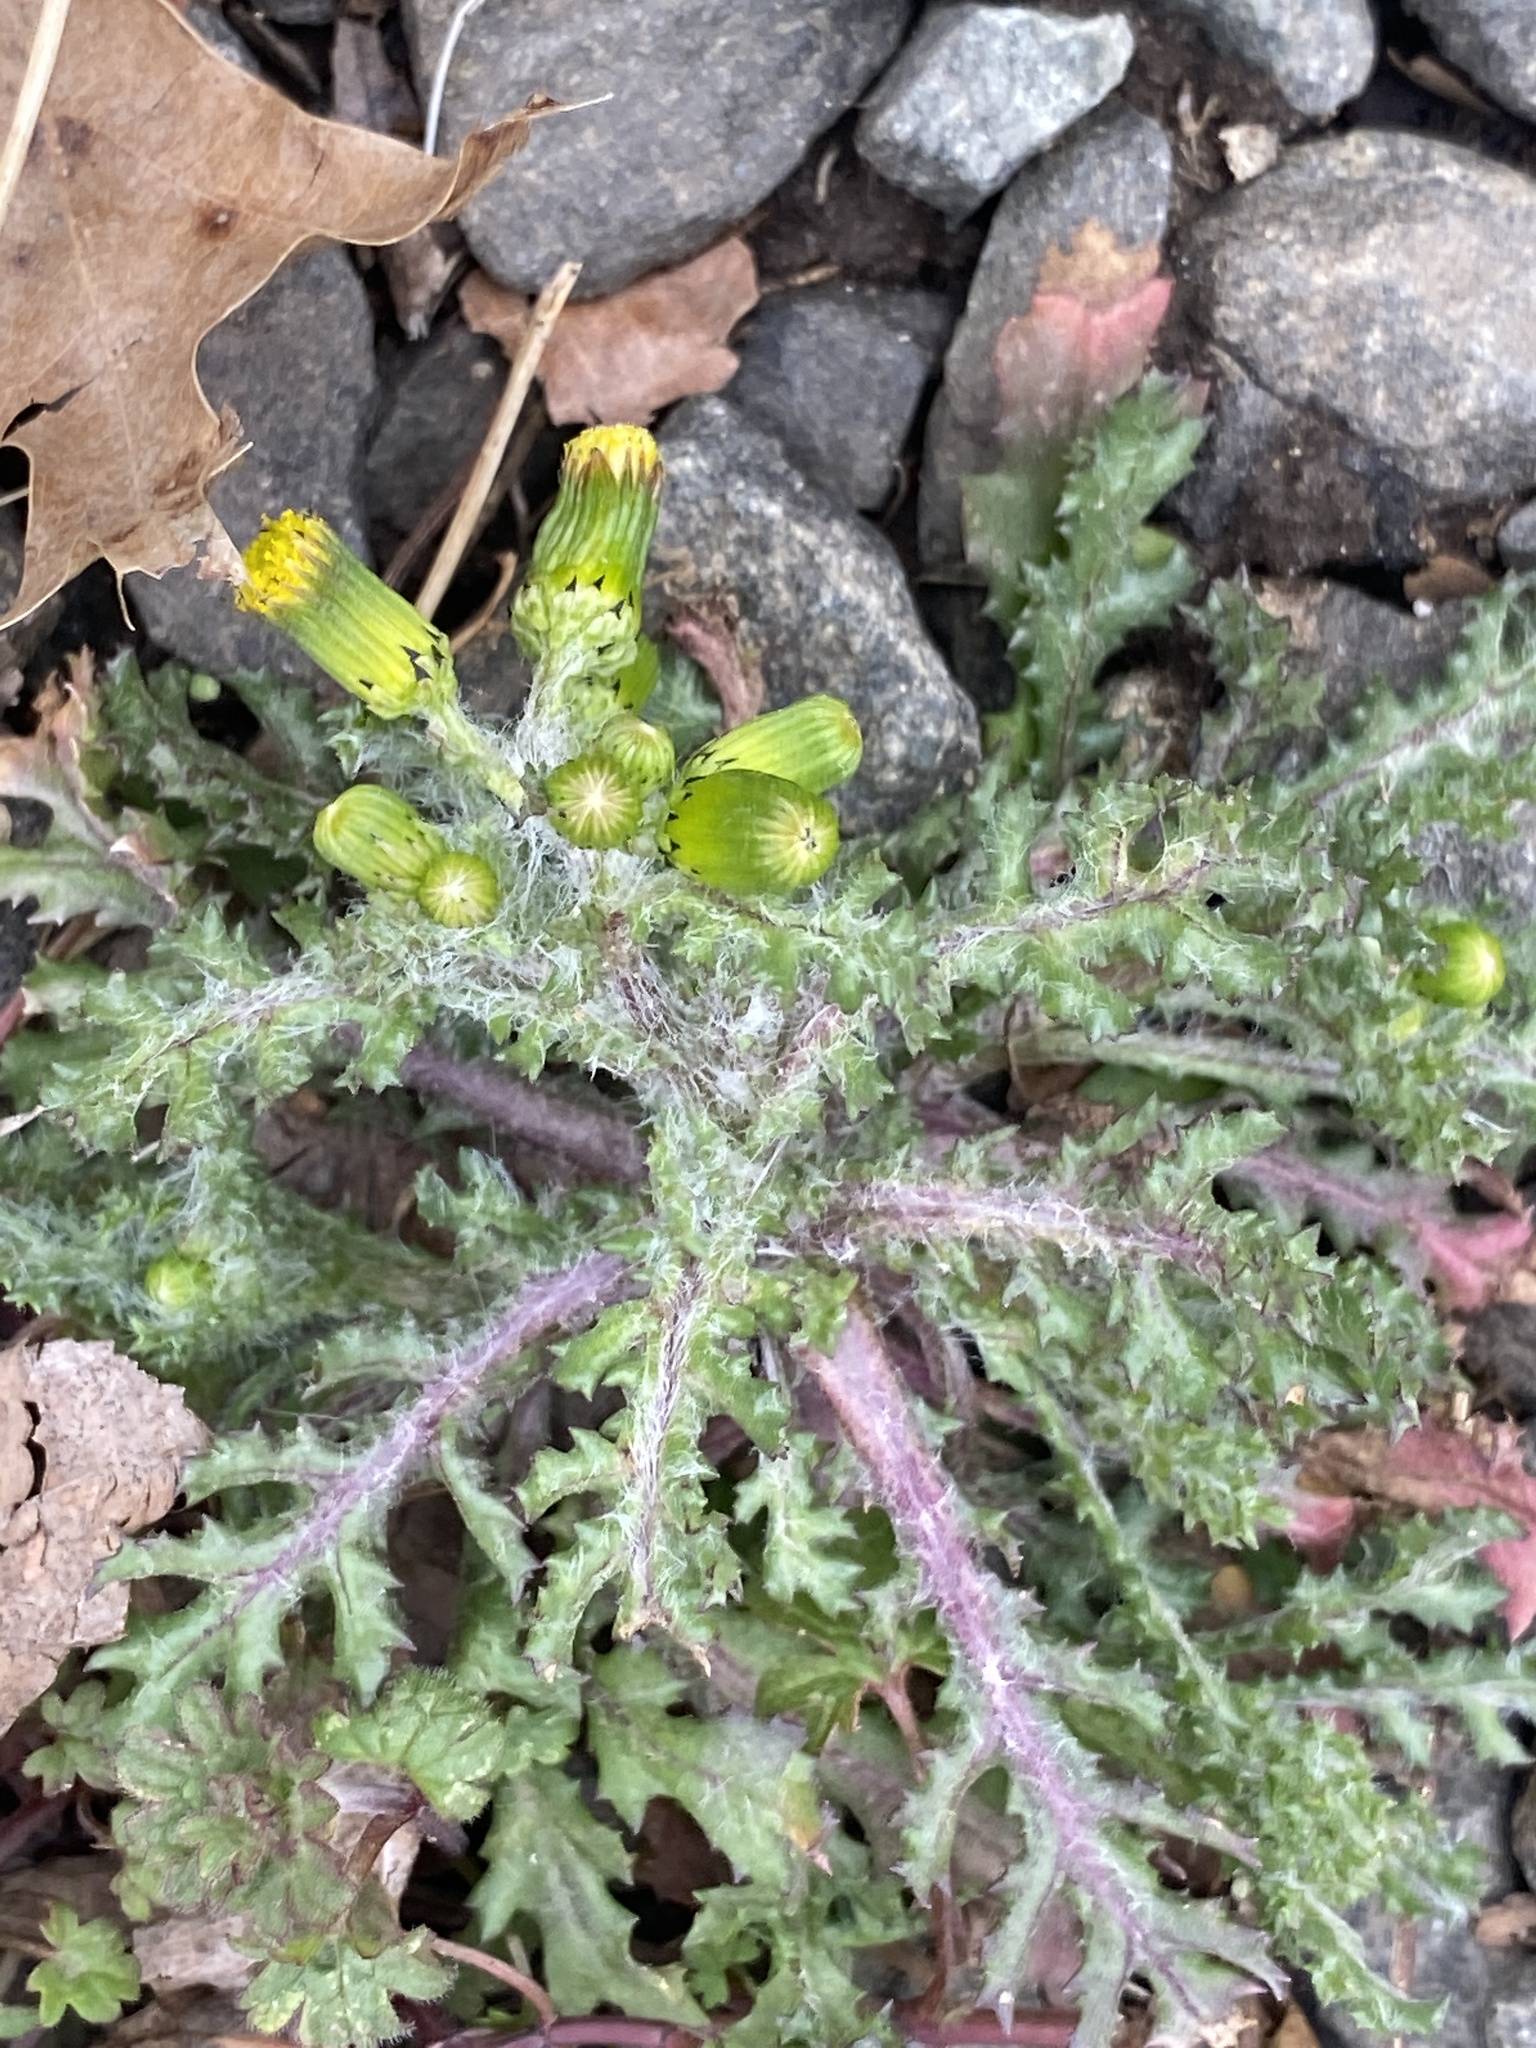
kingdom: Plantae
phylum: Tracheophyta
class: Magnoliopsida
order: Asterales
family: Asteraceae
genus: Senecio
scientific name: Senecio vulgaris
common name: Old-man-in-the-spring
